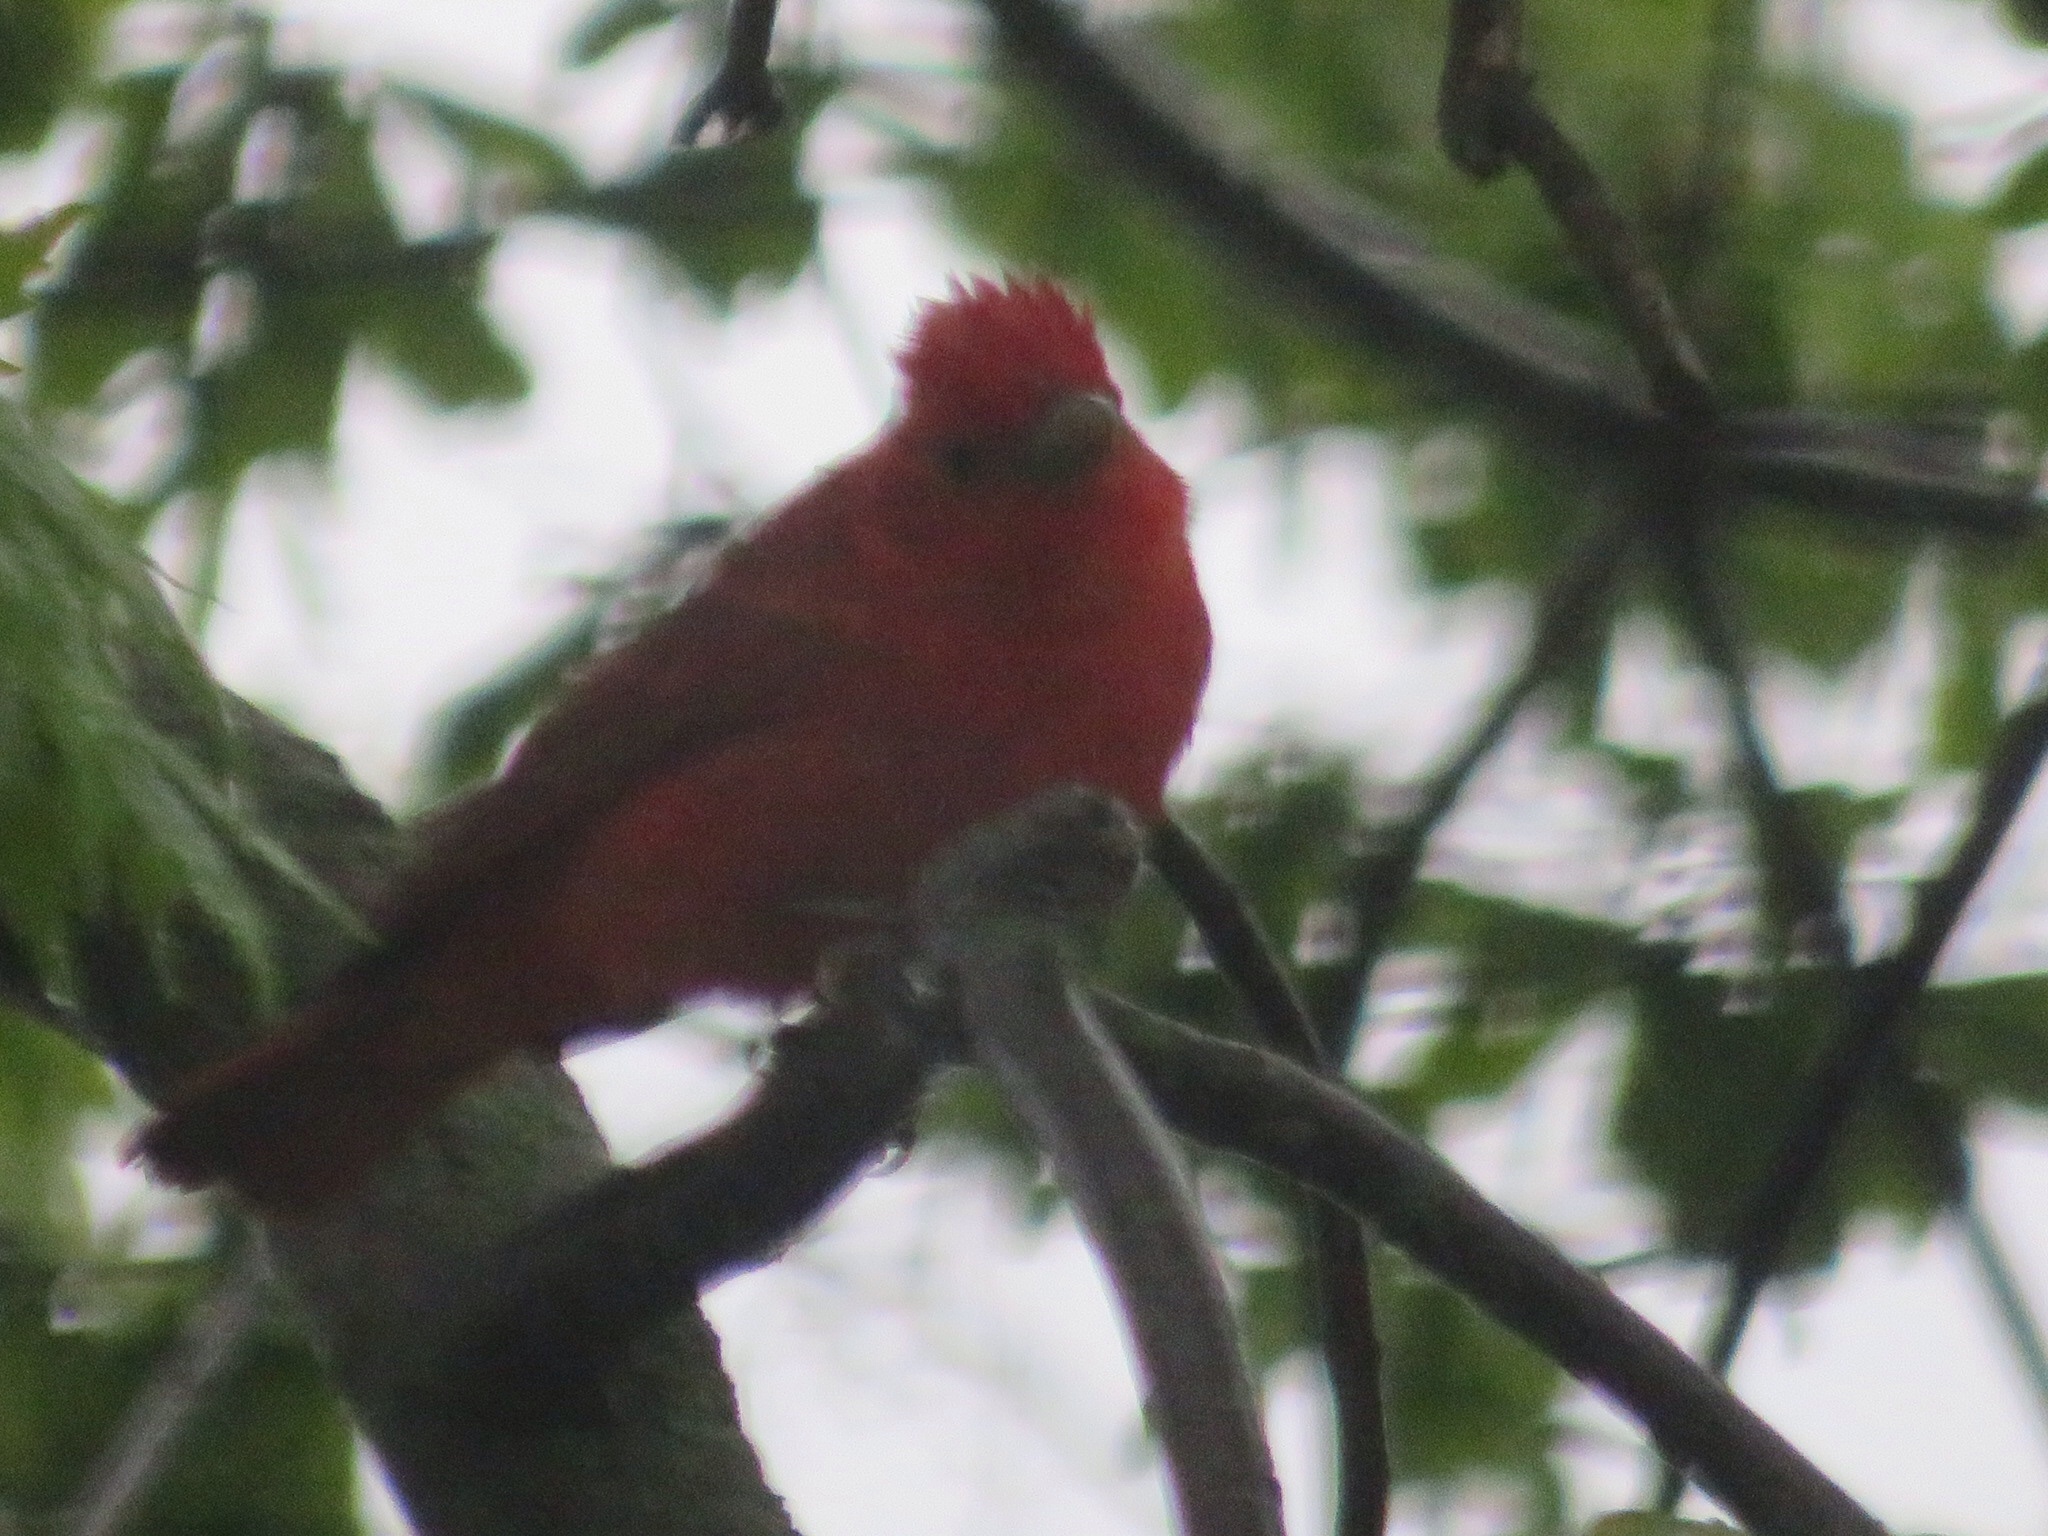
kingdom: Animalia
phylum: Chordata
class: Aves
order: Passeriformes
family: Cardinalidae
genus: Piranga
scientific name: Piranga rubra
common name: Summer tanager
